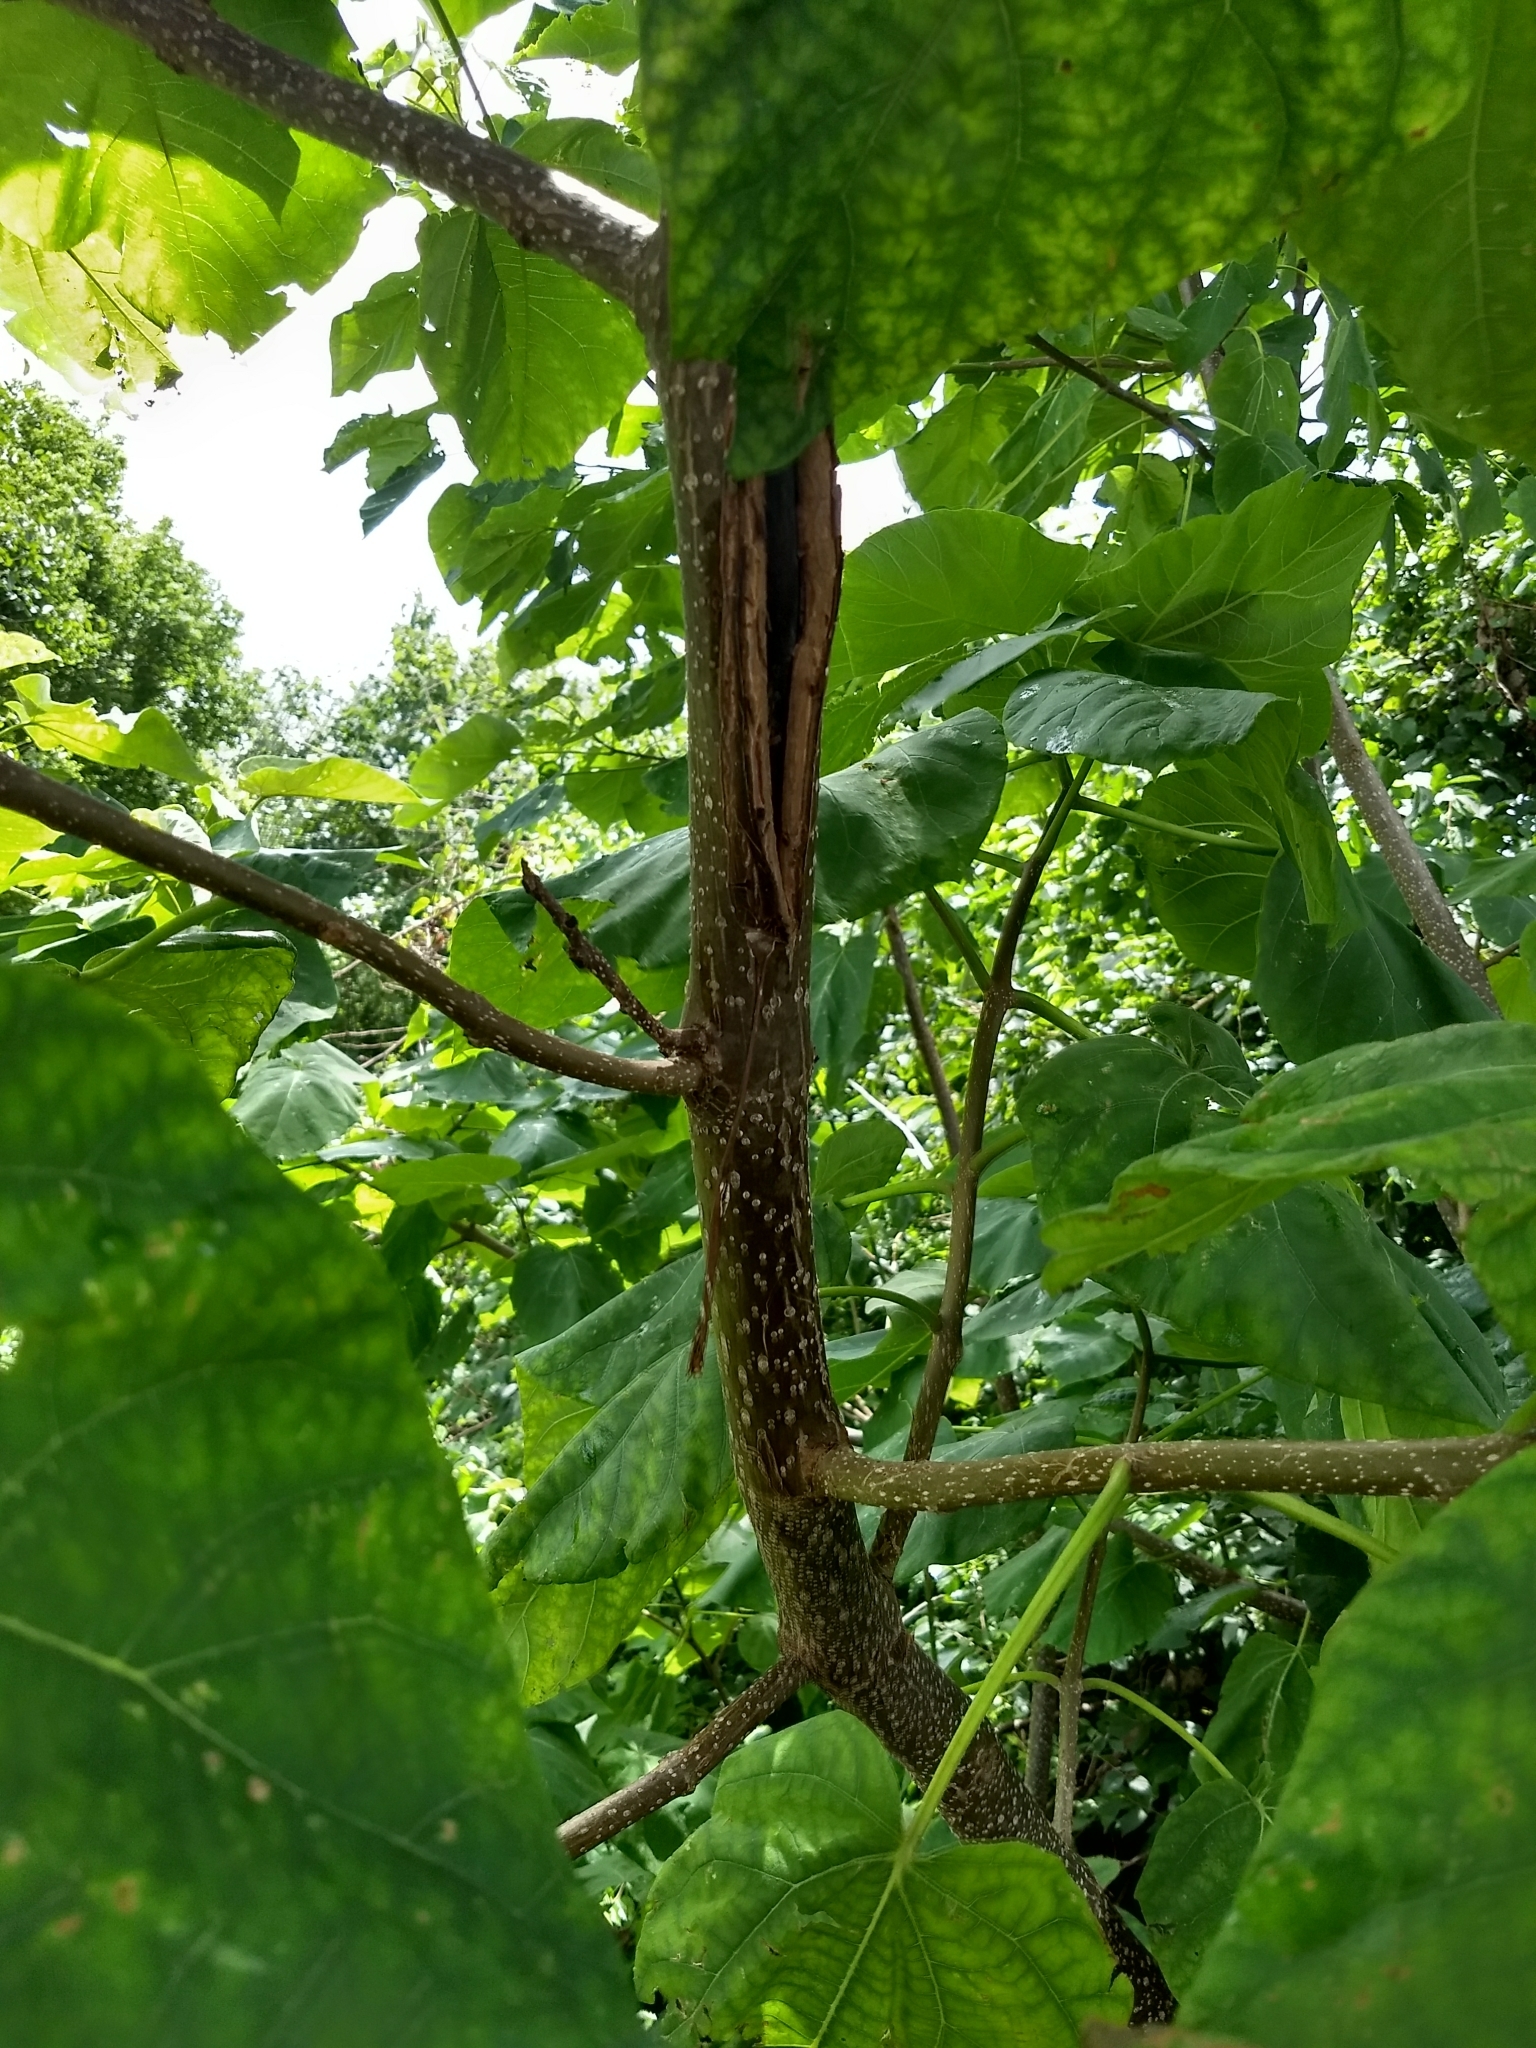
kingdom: Plantae
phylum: Tracheophyta
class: Magnoliopsida
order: Lamiales
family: Paulowniaceae
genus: Paulownia
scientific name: Paulownia tomentosa
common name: Foxglove-tree
